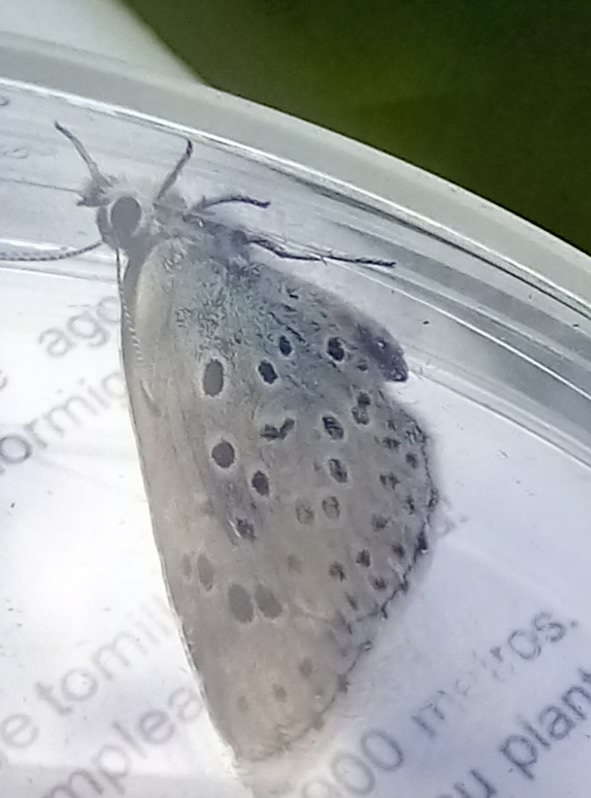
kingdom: Animalia
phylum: Arthropoda
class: Insecta
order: Lepidoptera
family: Lycaenidae
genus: Maculinea
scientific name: Maculinea arion
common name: Large blue
